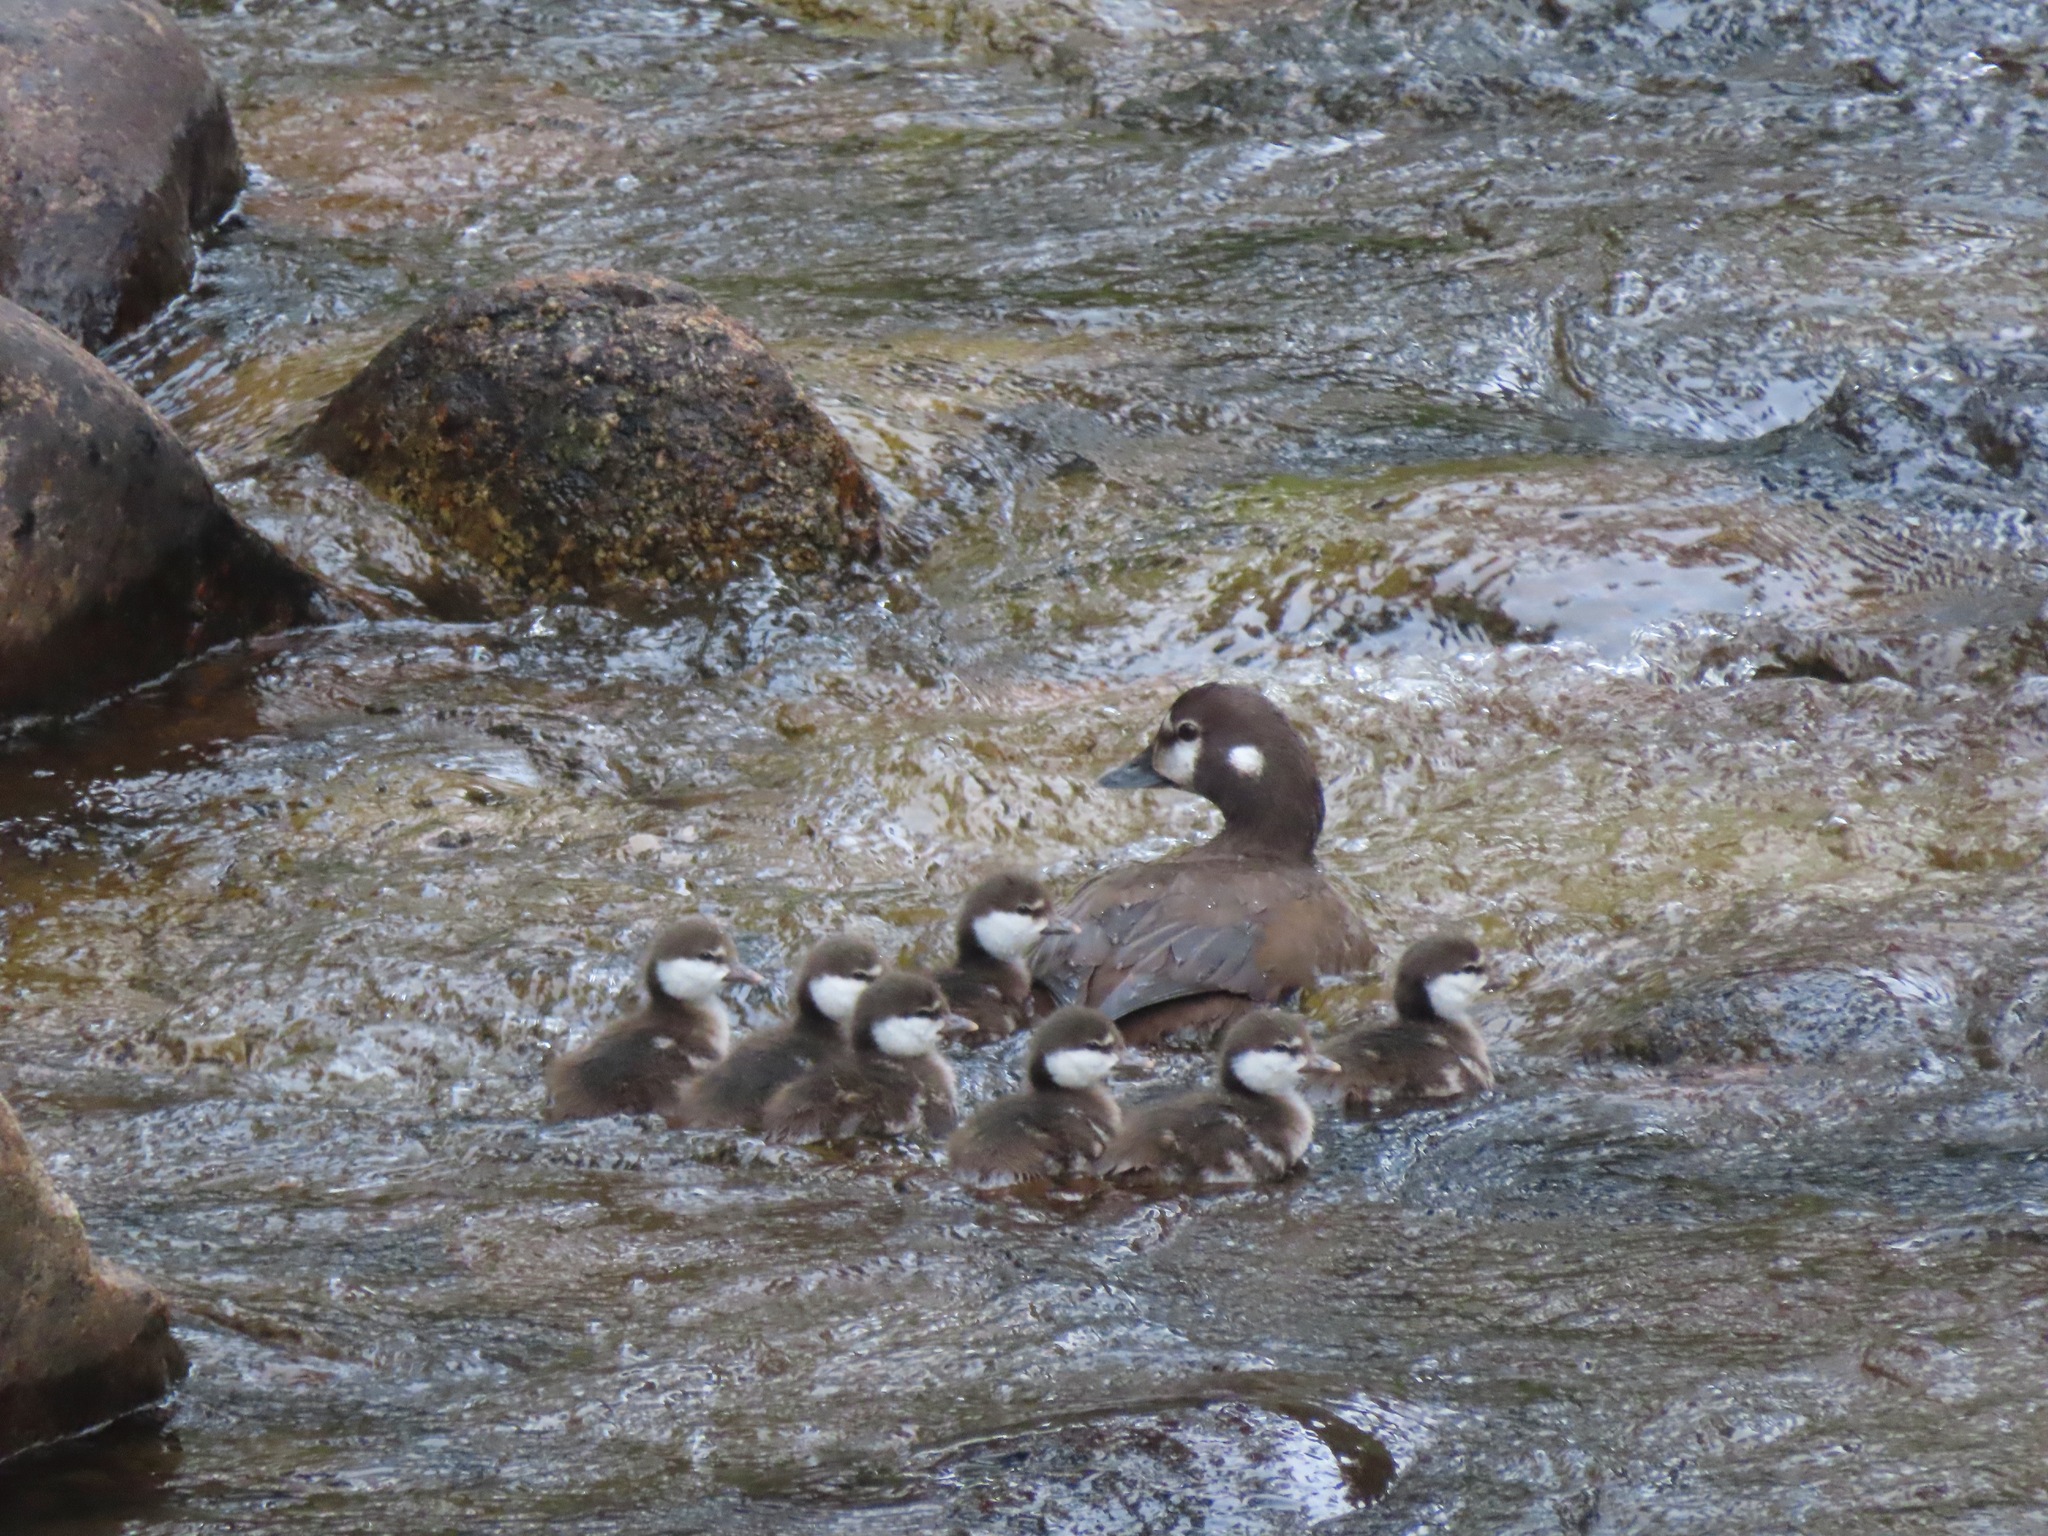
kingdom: Animalia
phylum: Chordata
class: Aves
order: Anseriformes
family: Anatidae
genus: Histrionicus
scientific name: Histrionicus histrionicus
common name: Harlequin duck
